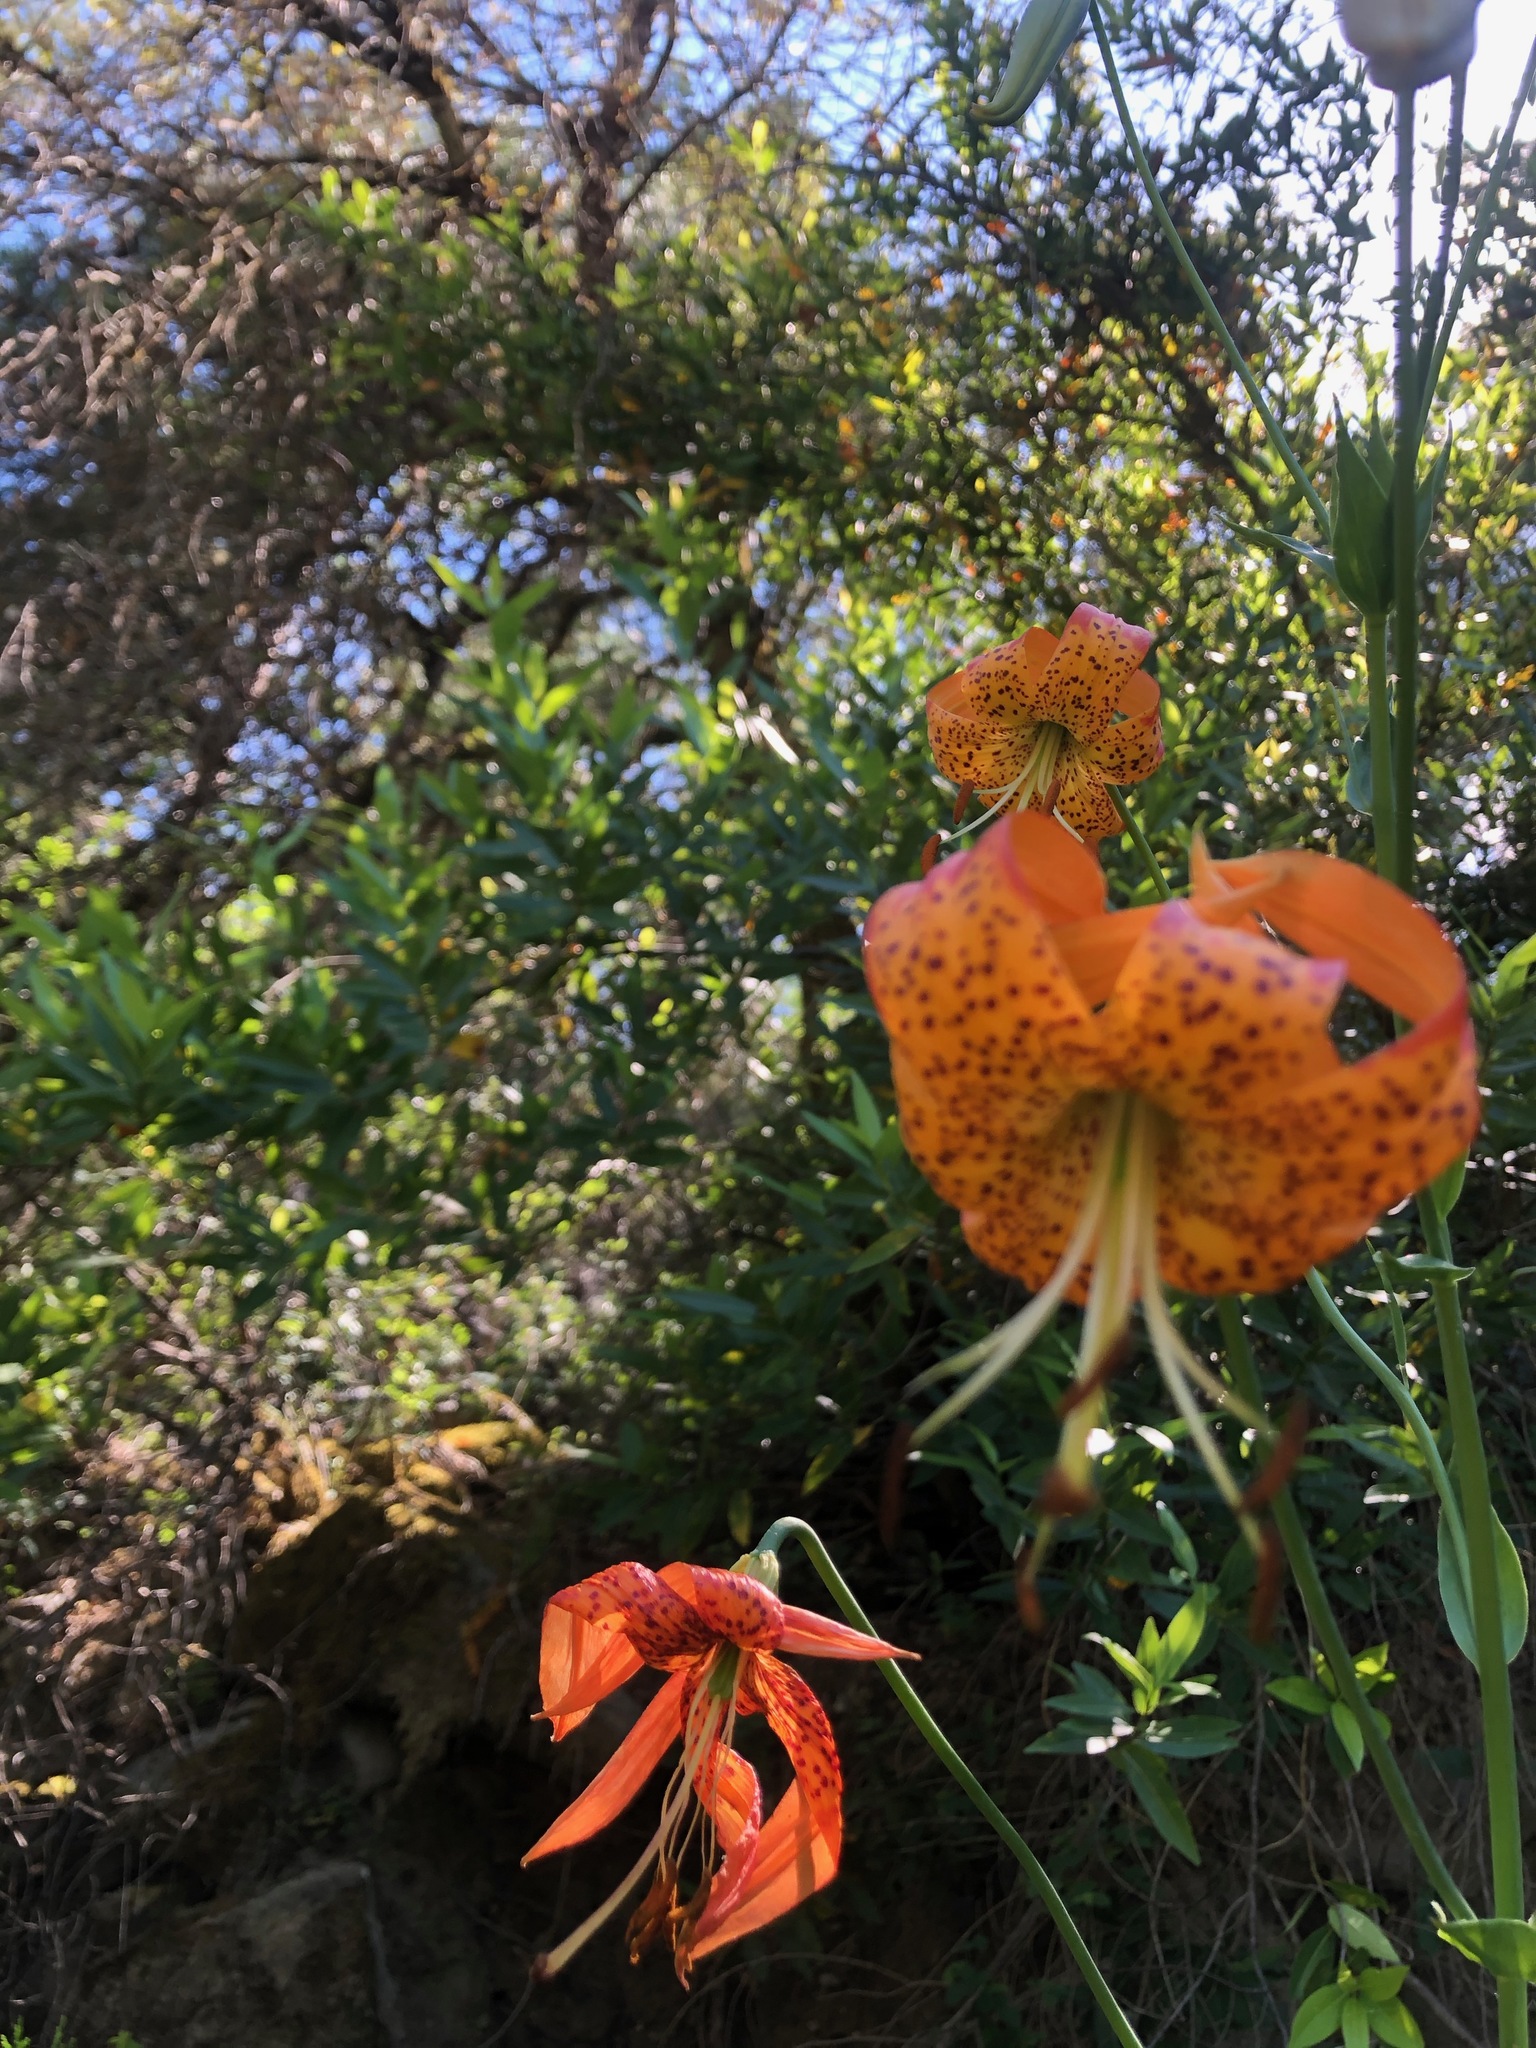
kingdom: Plantae
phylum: Tracheophyta
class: Liliopsida
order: Liliales
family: Liliaceae
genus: Lilium
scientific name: Lilium pardalinum
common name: Panther lily
